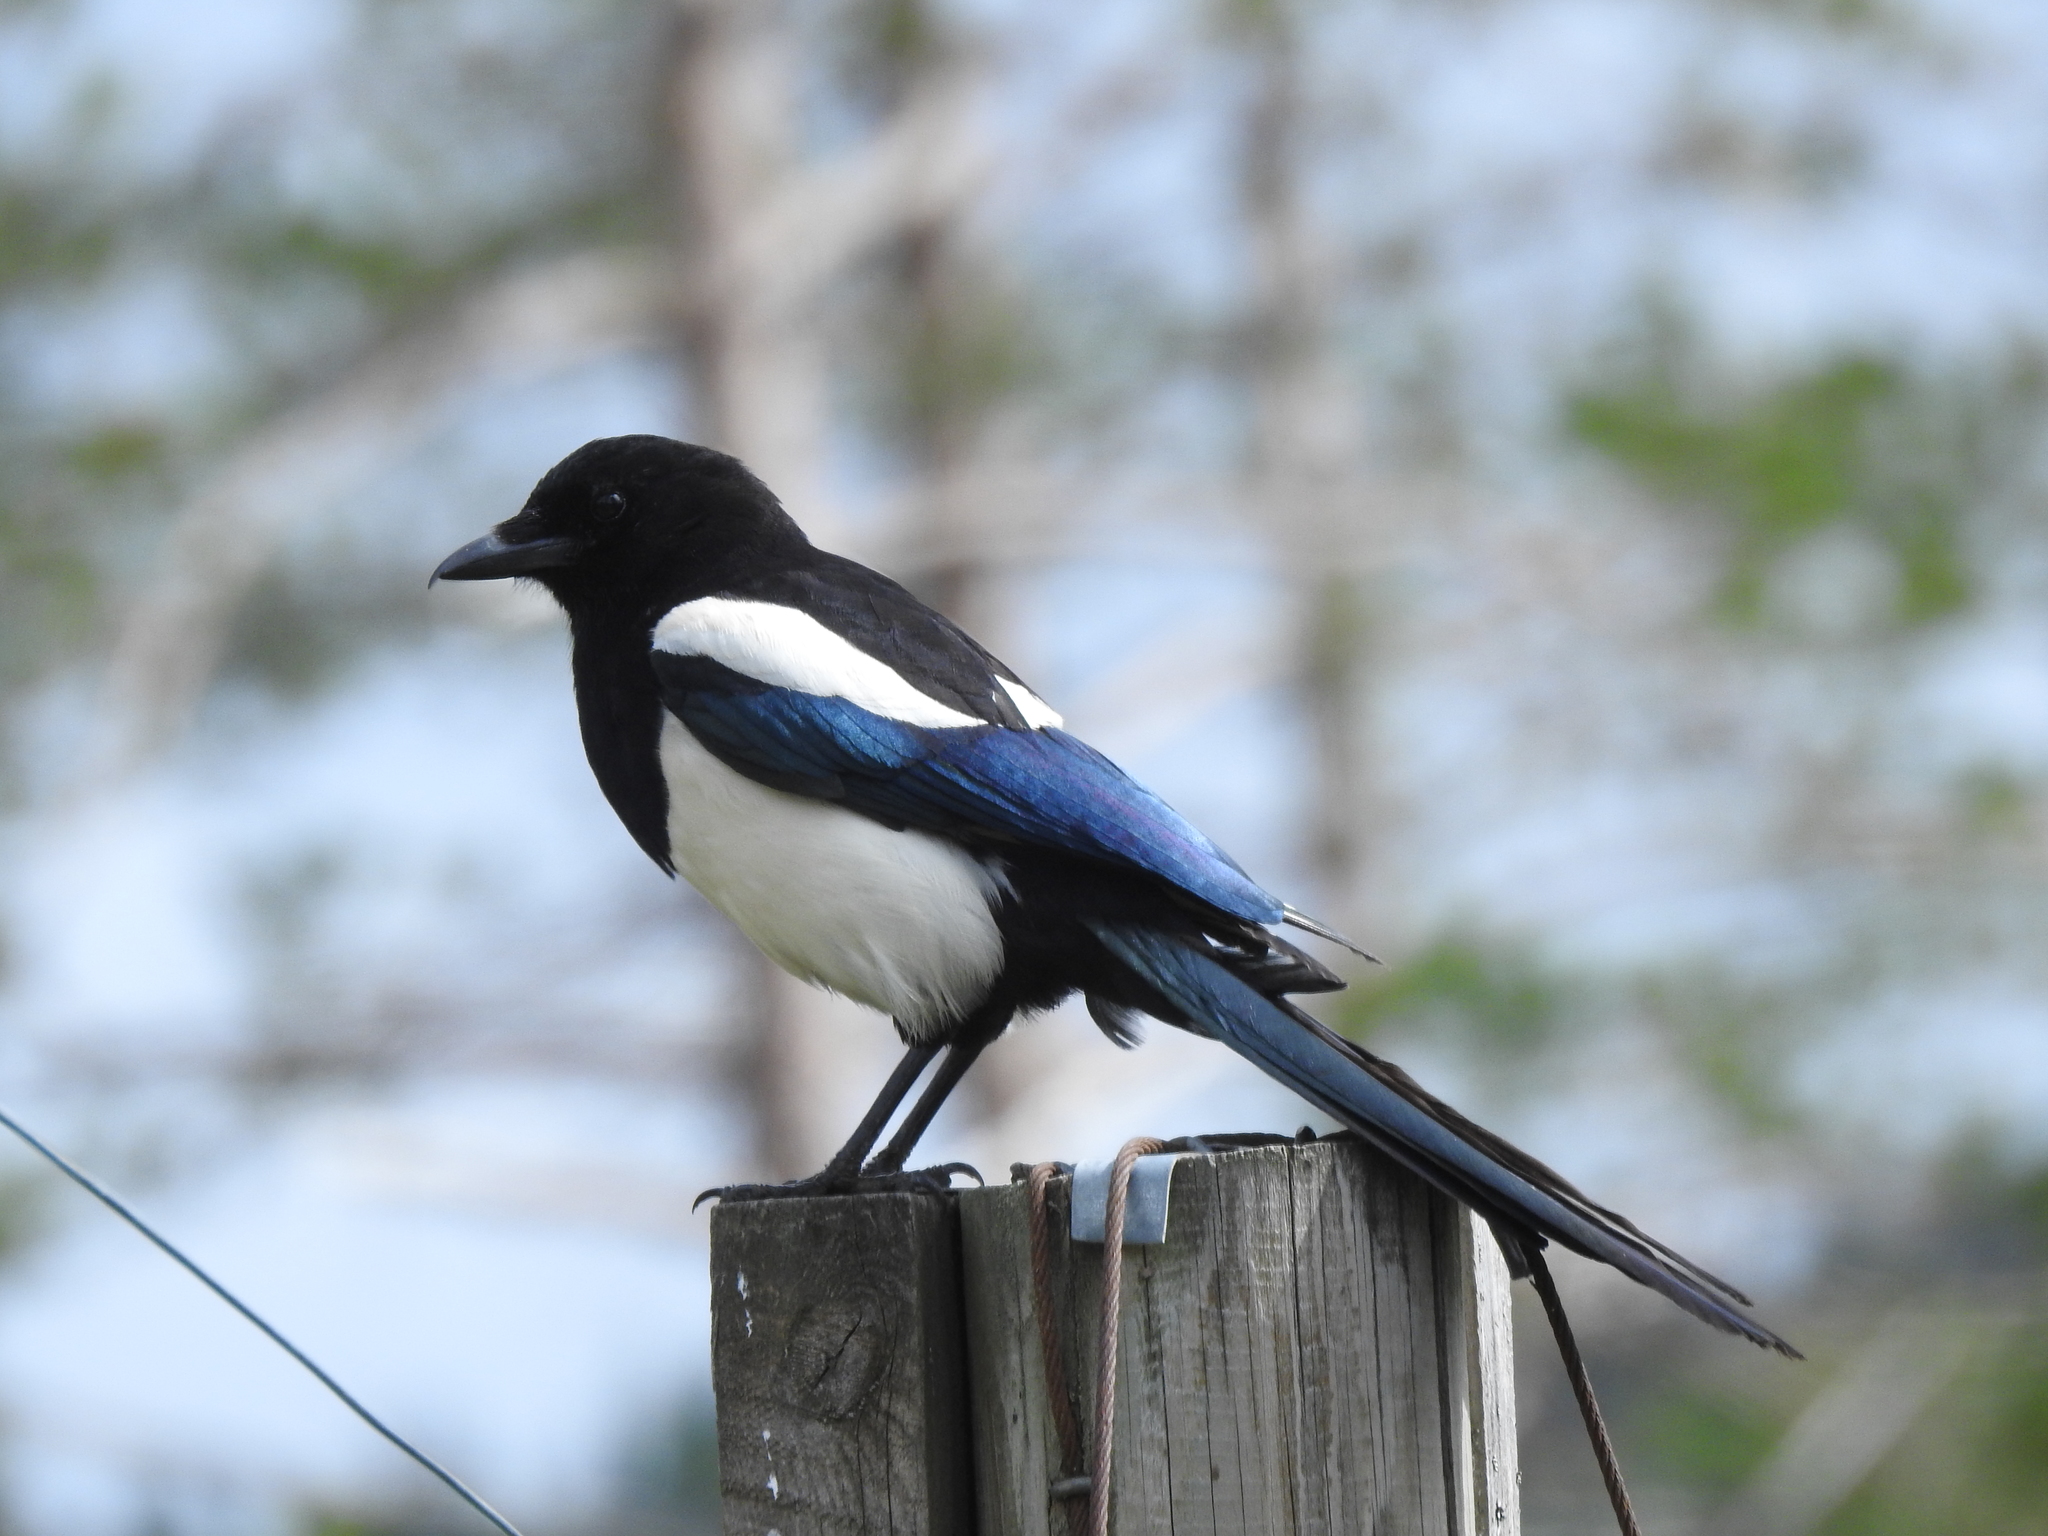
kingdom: Animalia
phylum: Chordata
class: Aves
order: Passeriformes
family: Corvidae
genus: Pica
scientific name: Pica pica
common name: Eurasian magpie
